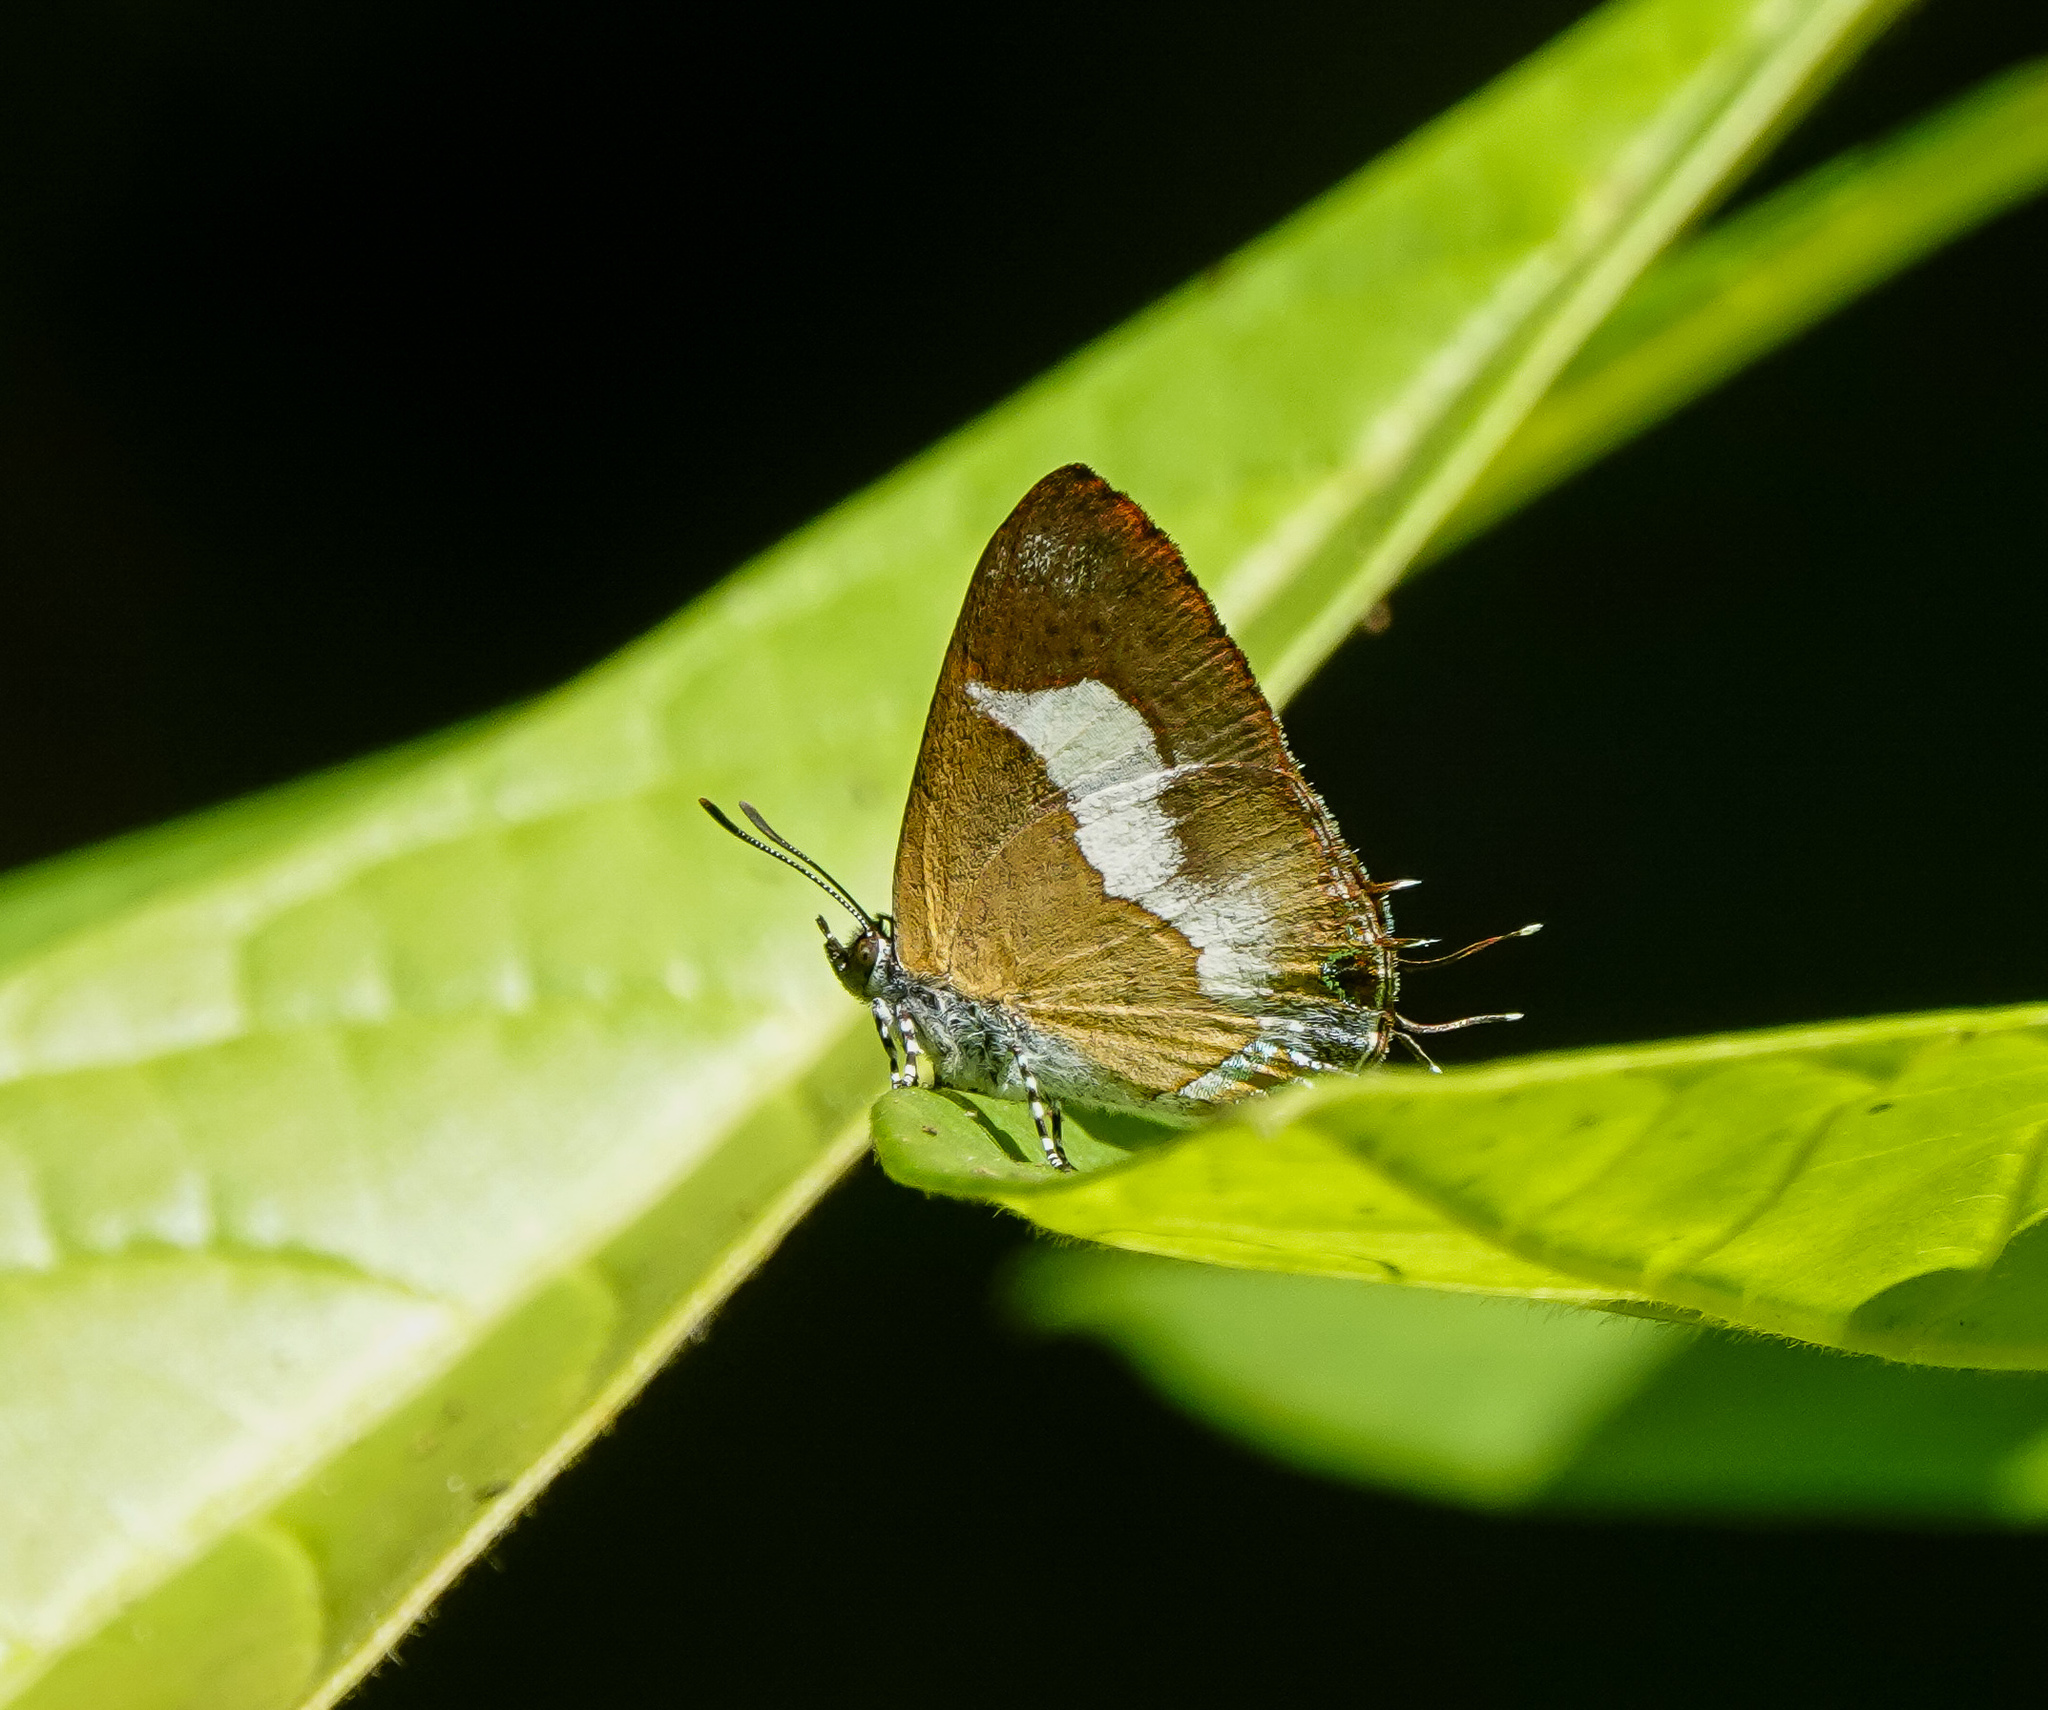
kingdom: Animalia
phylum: Arthropoda
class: Insecta
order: Lepidoptera
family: Lycaenidae
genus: Horaga
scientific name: Horaga onyx
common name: Common onyx
